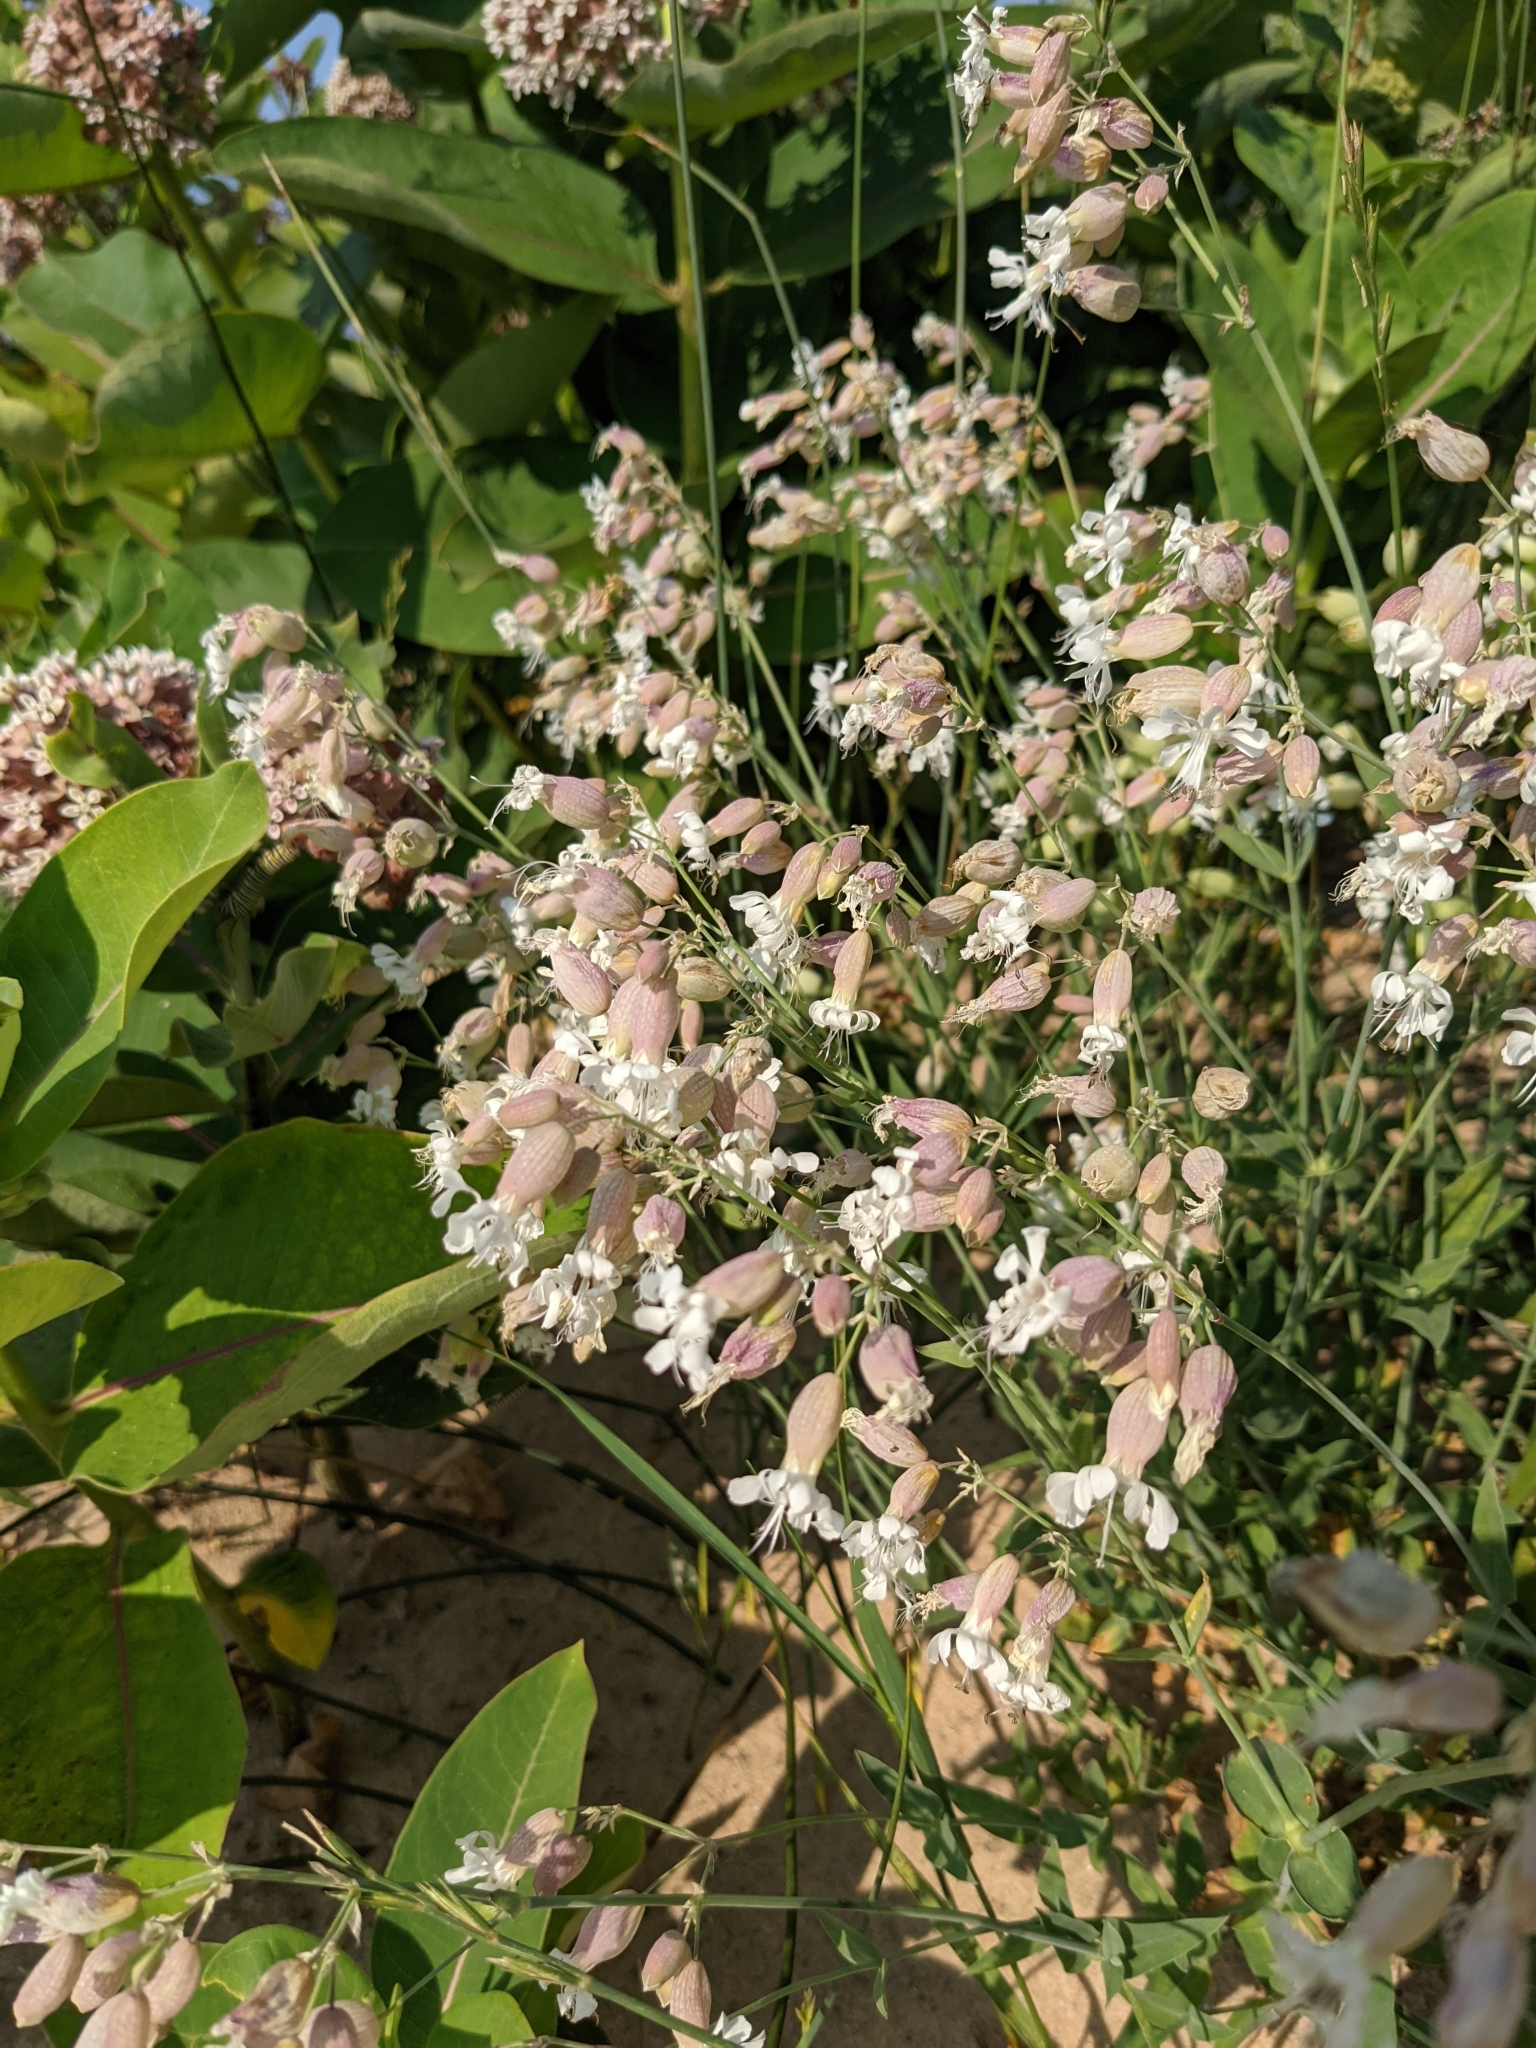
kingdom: Plantae
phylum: Tracheophyta
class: Magnoliopsida
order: Caryophyllales
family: Caryophyllaceae
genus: Silene
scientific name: Silene vulgaris
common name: Bladder campion
